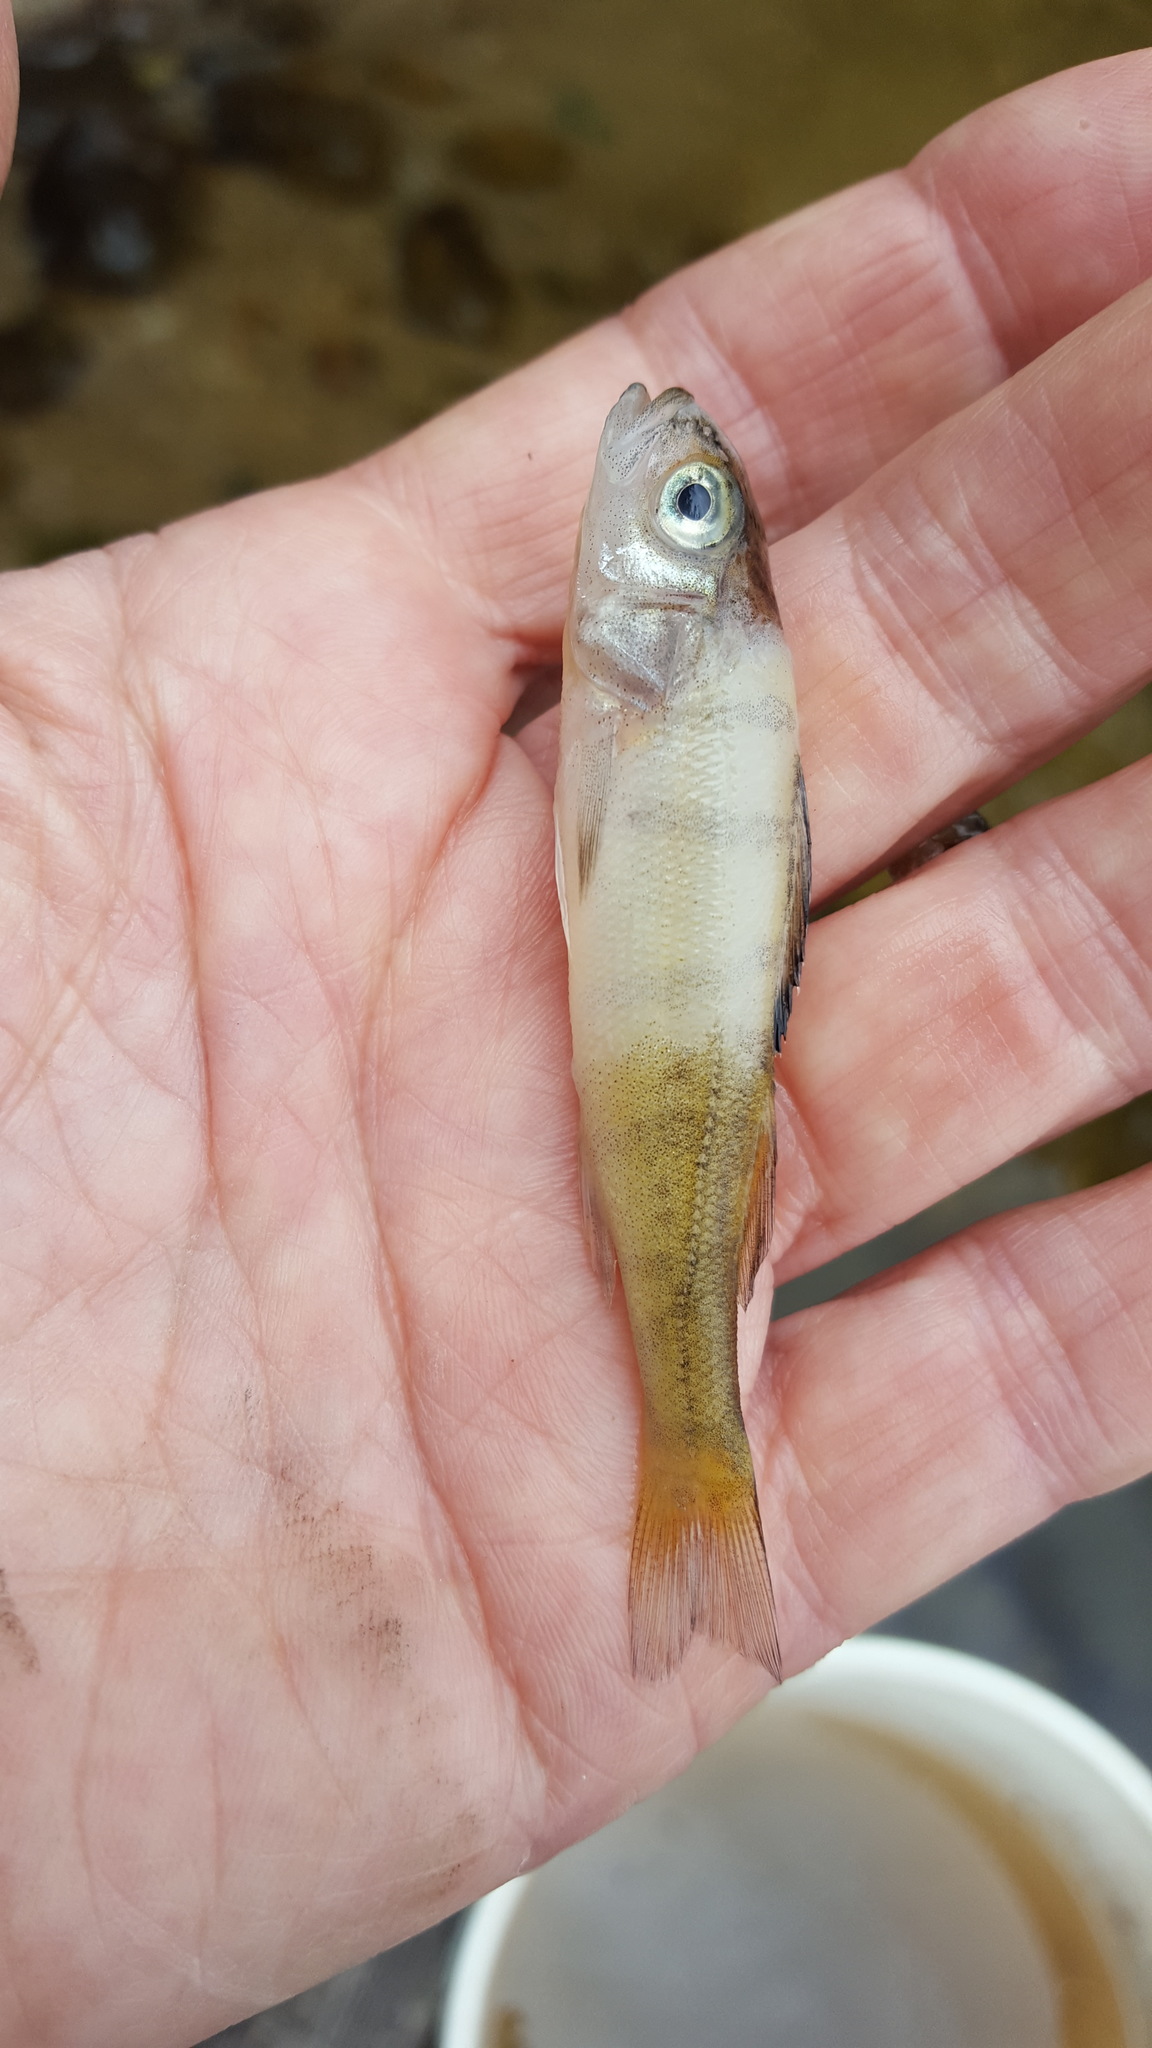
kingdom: Animalia
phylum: Chordata
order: Perciformes
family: Percidae
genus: Perca
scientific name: Perca flavescens
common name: Yellow perch
